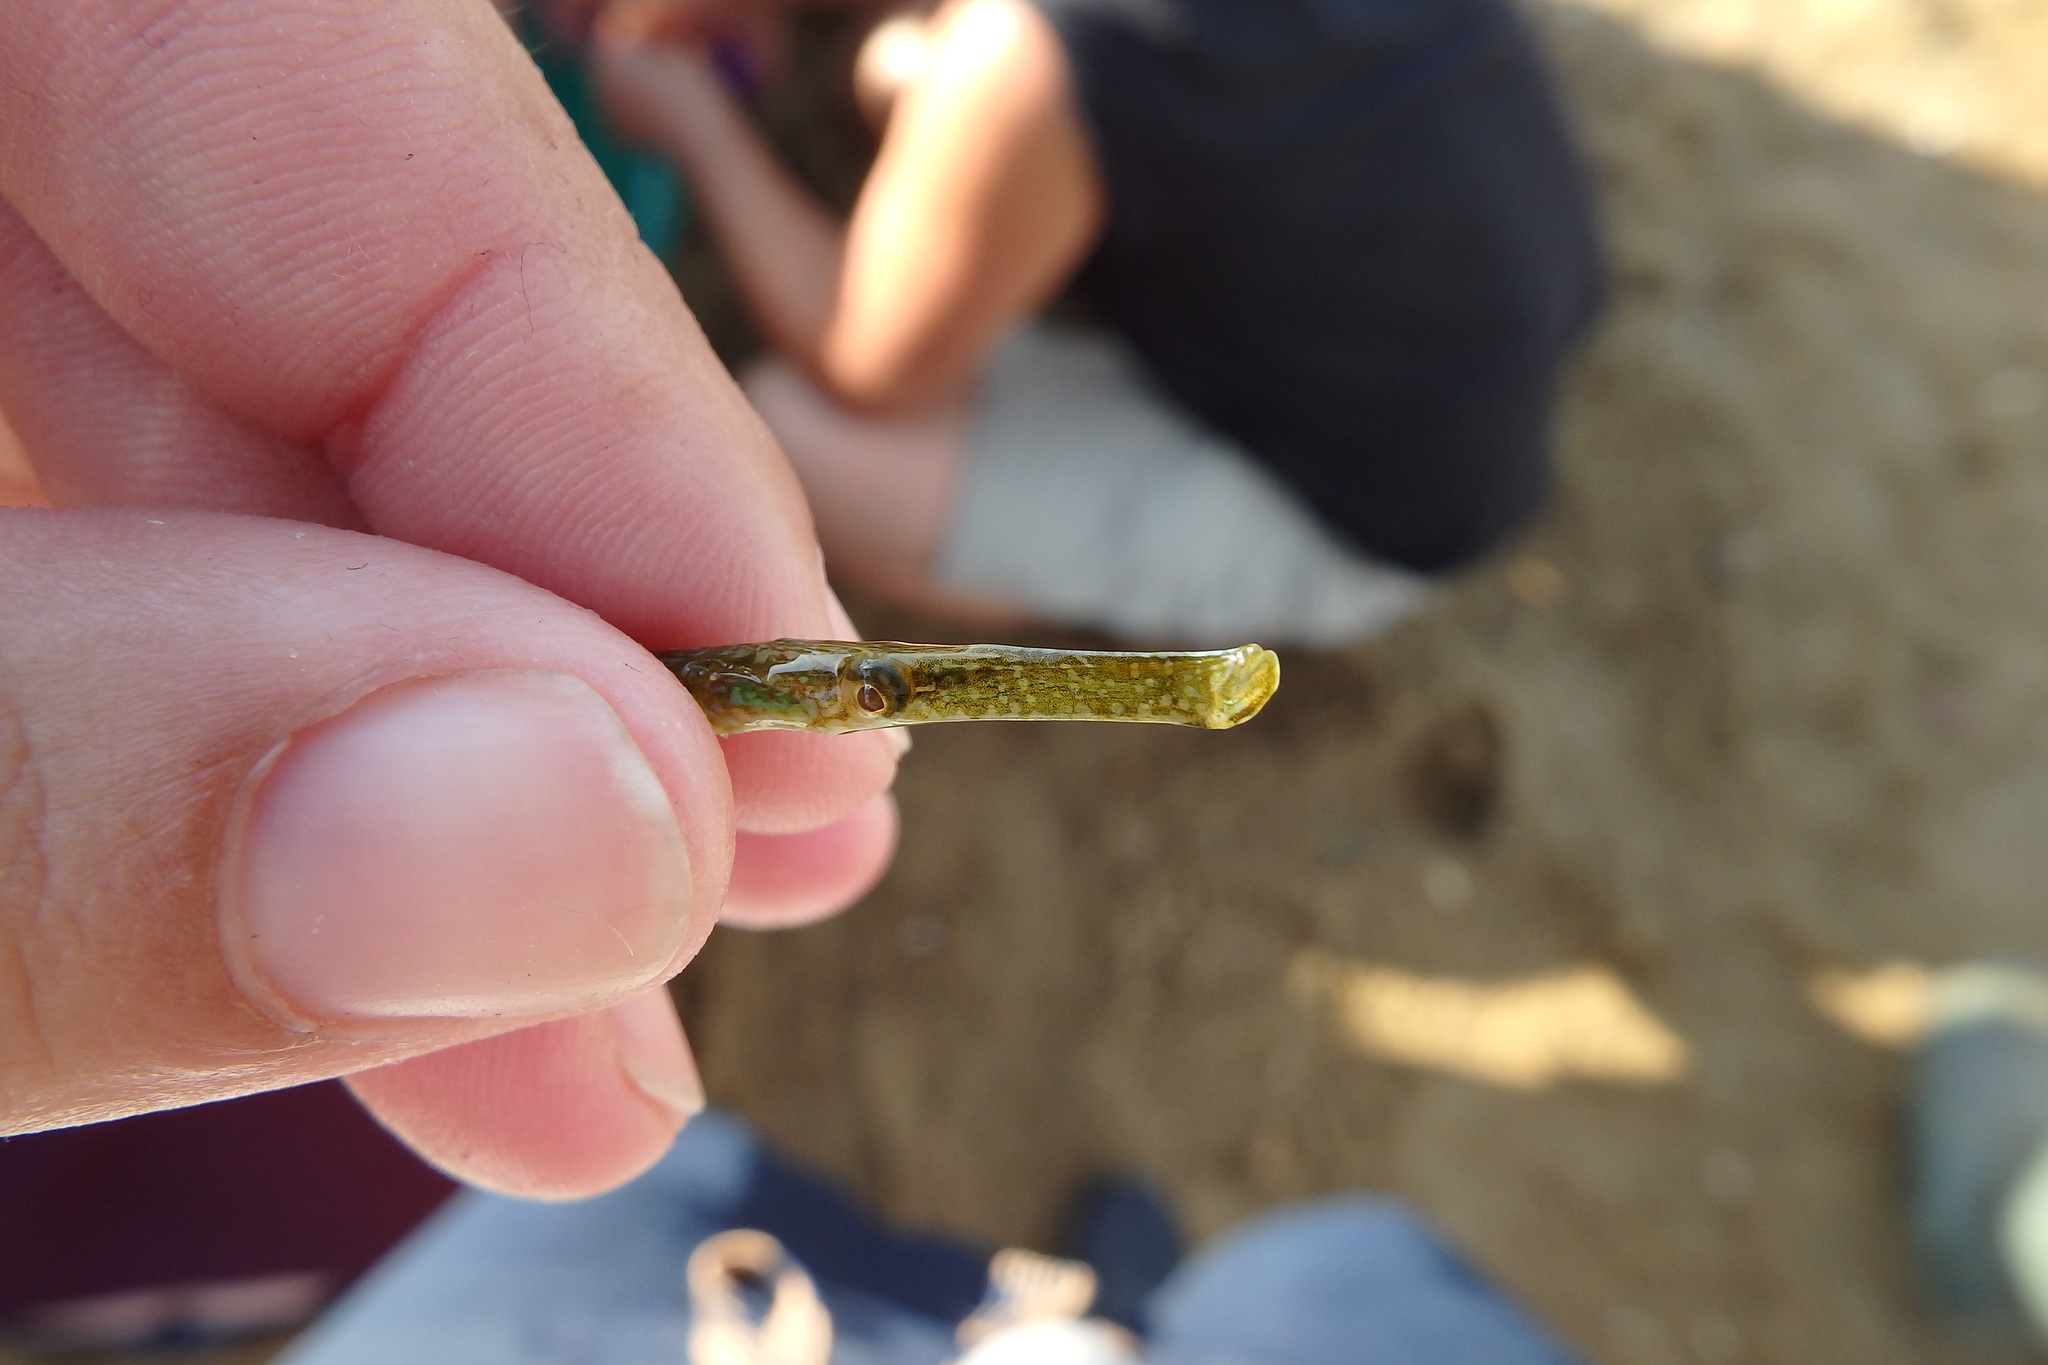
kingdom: Animalia
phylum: Chordata
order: Syngnathiformes
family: Syngnathidae
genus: Syngnathus
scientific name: Syngnathus typhle
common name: Deep-snouted pipefish
